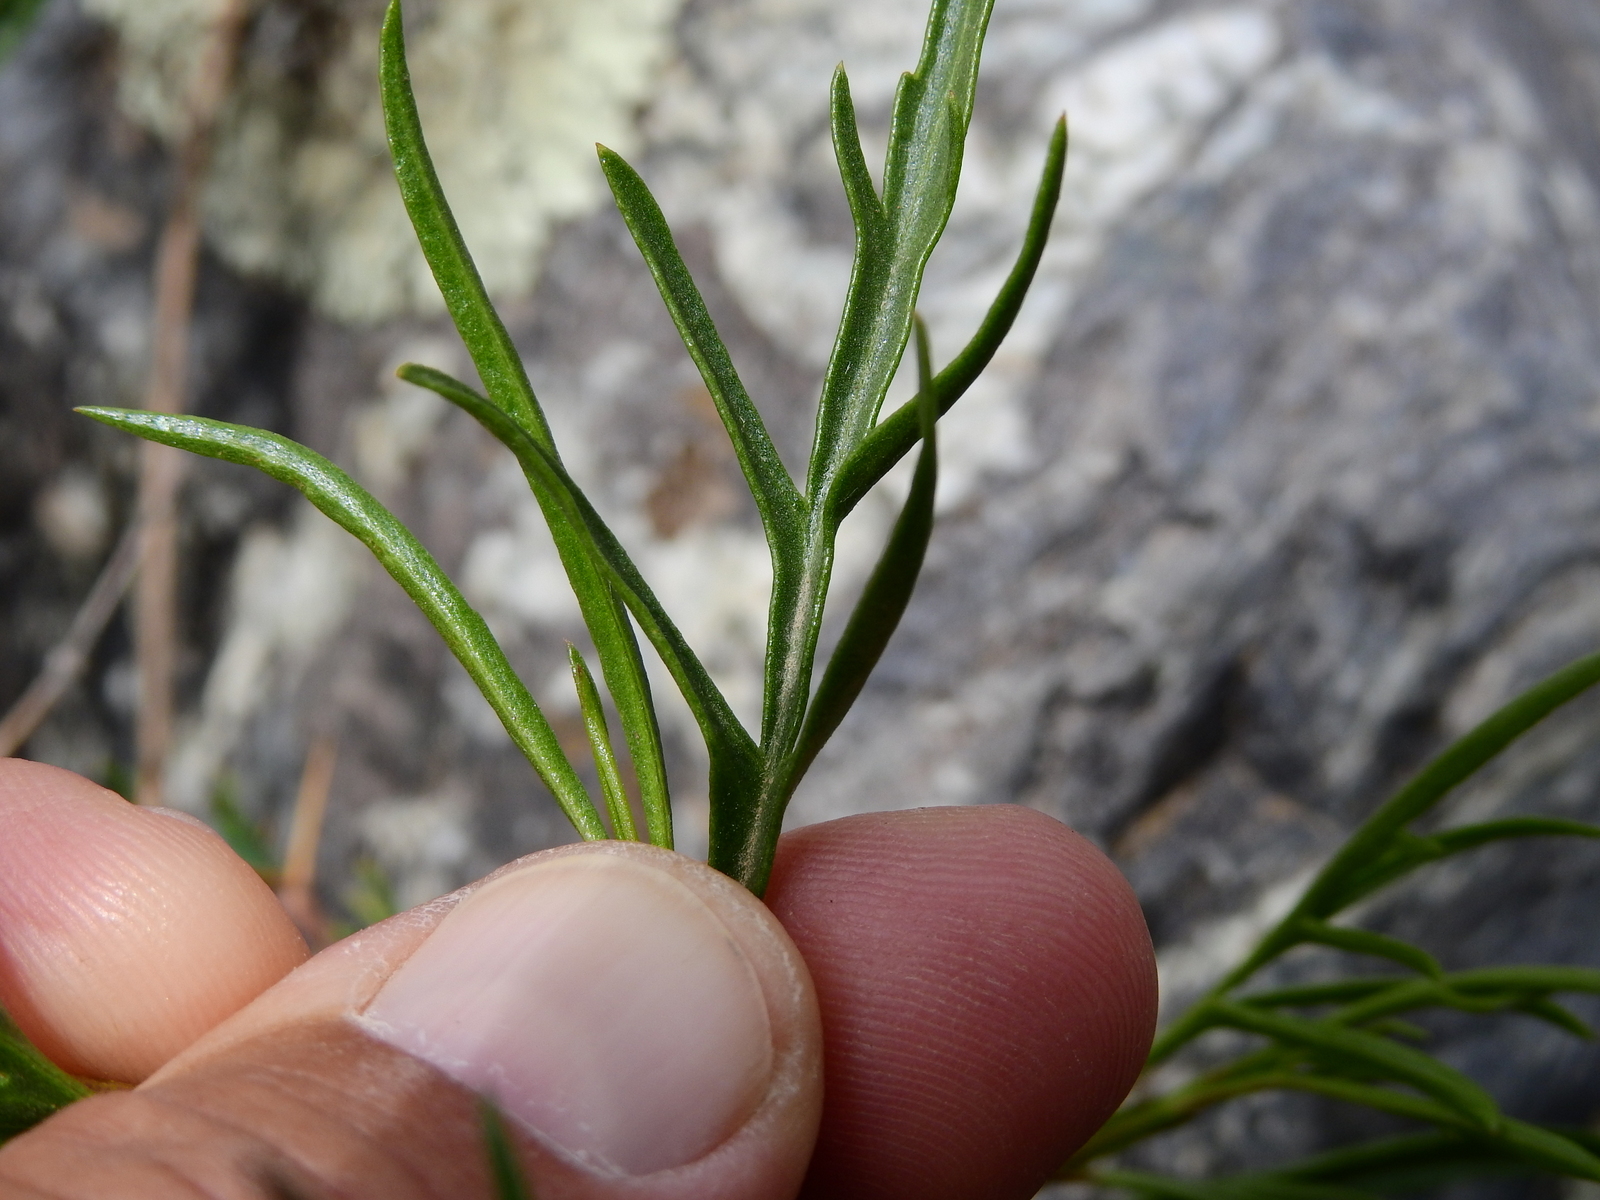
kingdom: Plantae
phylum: Tracheophyta
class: Magnoliopsida
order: Asterales
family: Asteraceae
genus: Acanthostyles
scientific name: Acanthostyles buniifolius
